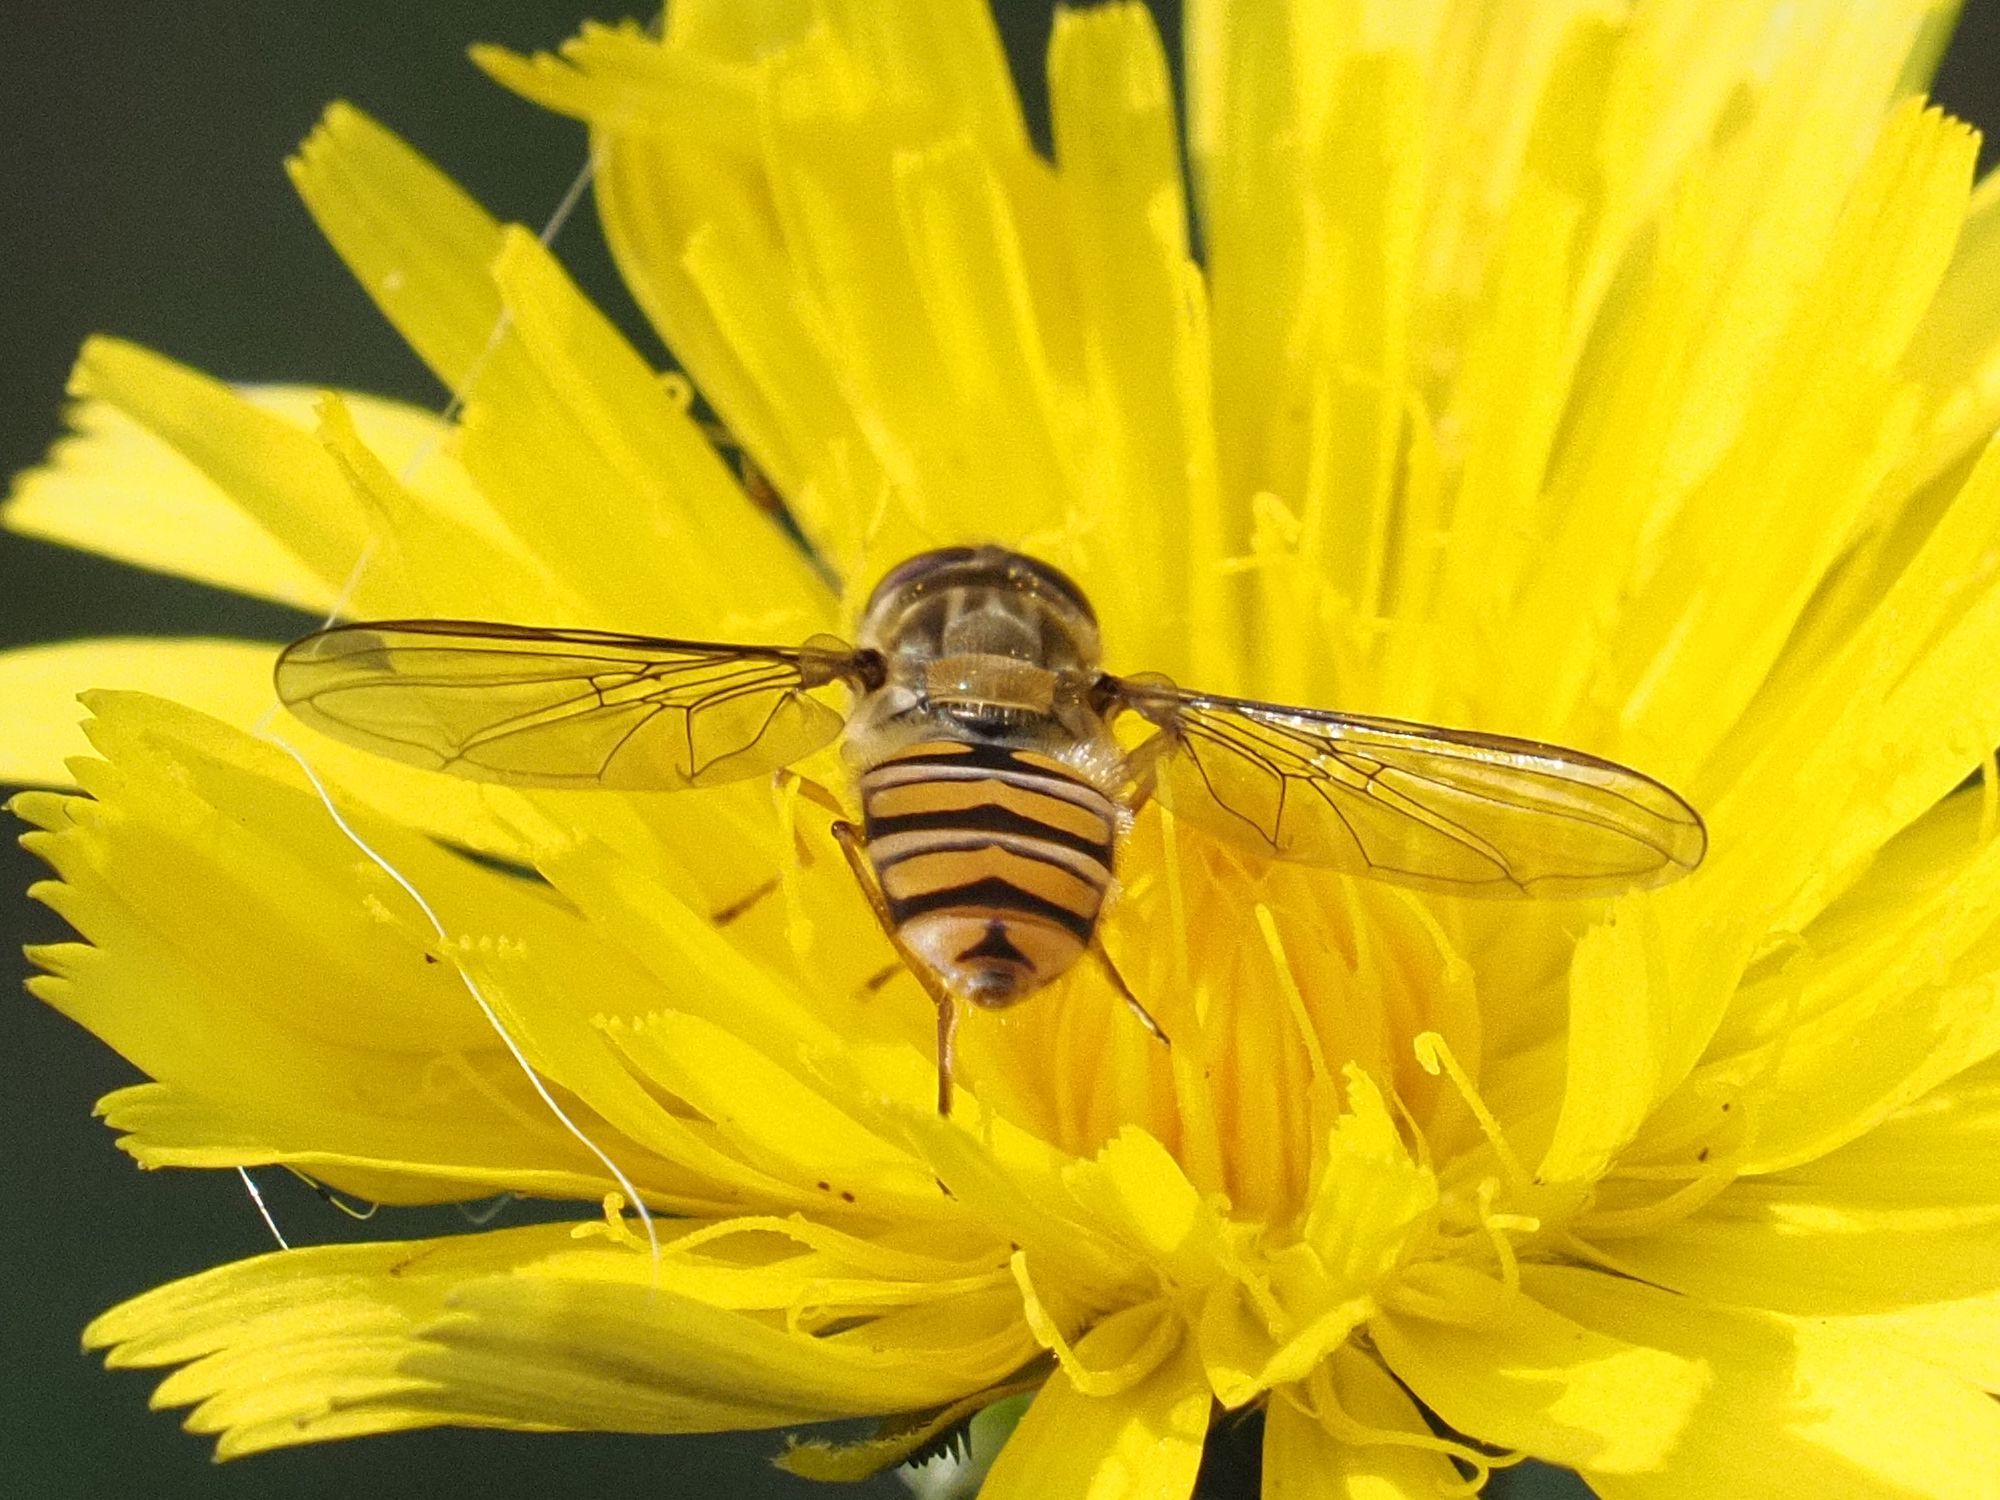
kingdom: Animalia
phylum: Arthropoda
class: Insecta
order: Diptera
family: Syrphidae
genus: Episyrphus
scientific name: Episyrphus balteatus
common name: Marmalade hoverfly
